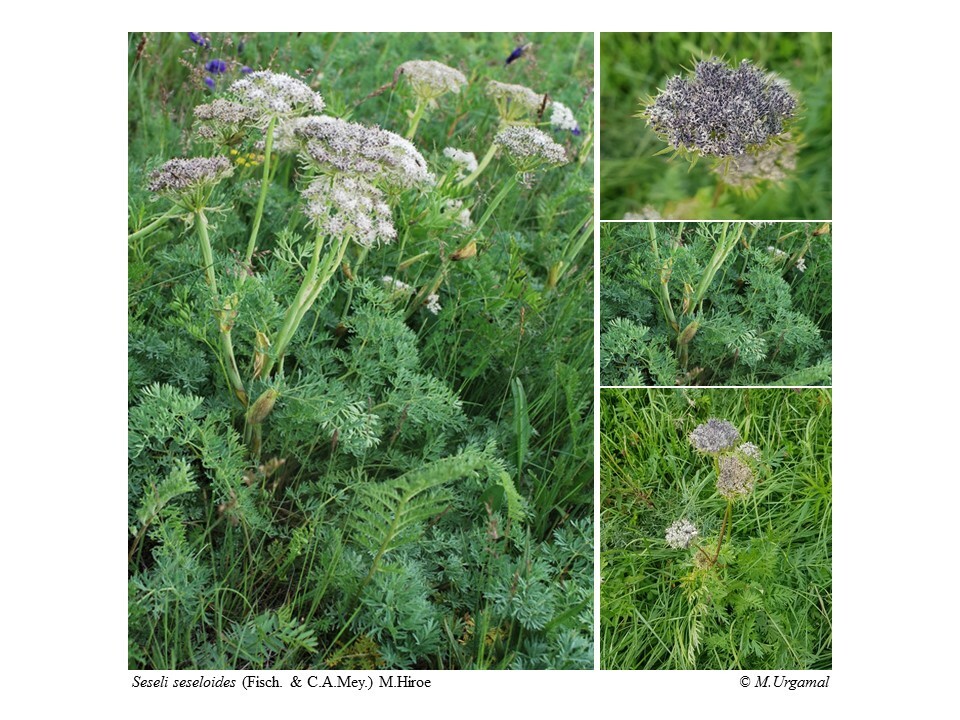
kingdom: Plantae
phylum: Tracheophyta
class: Magnoliopsida
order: Apiales
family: Apiaceae
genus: Seseli
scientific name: Seseli seseloides
